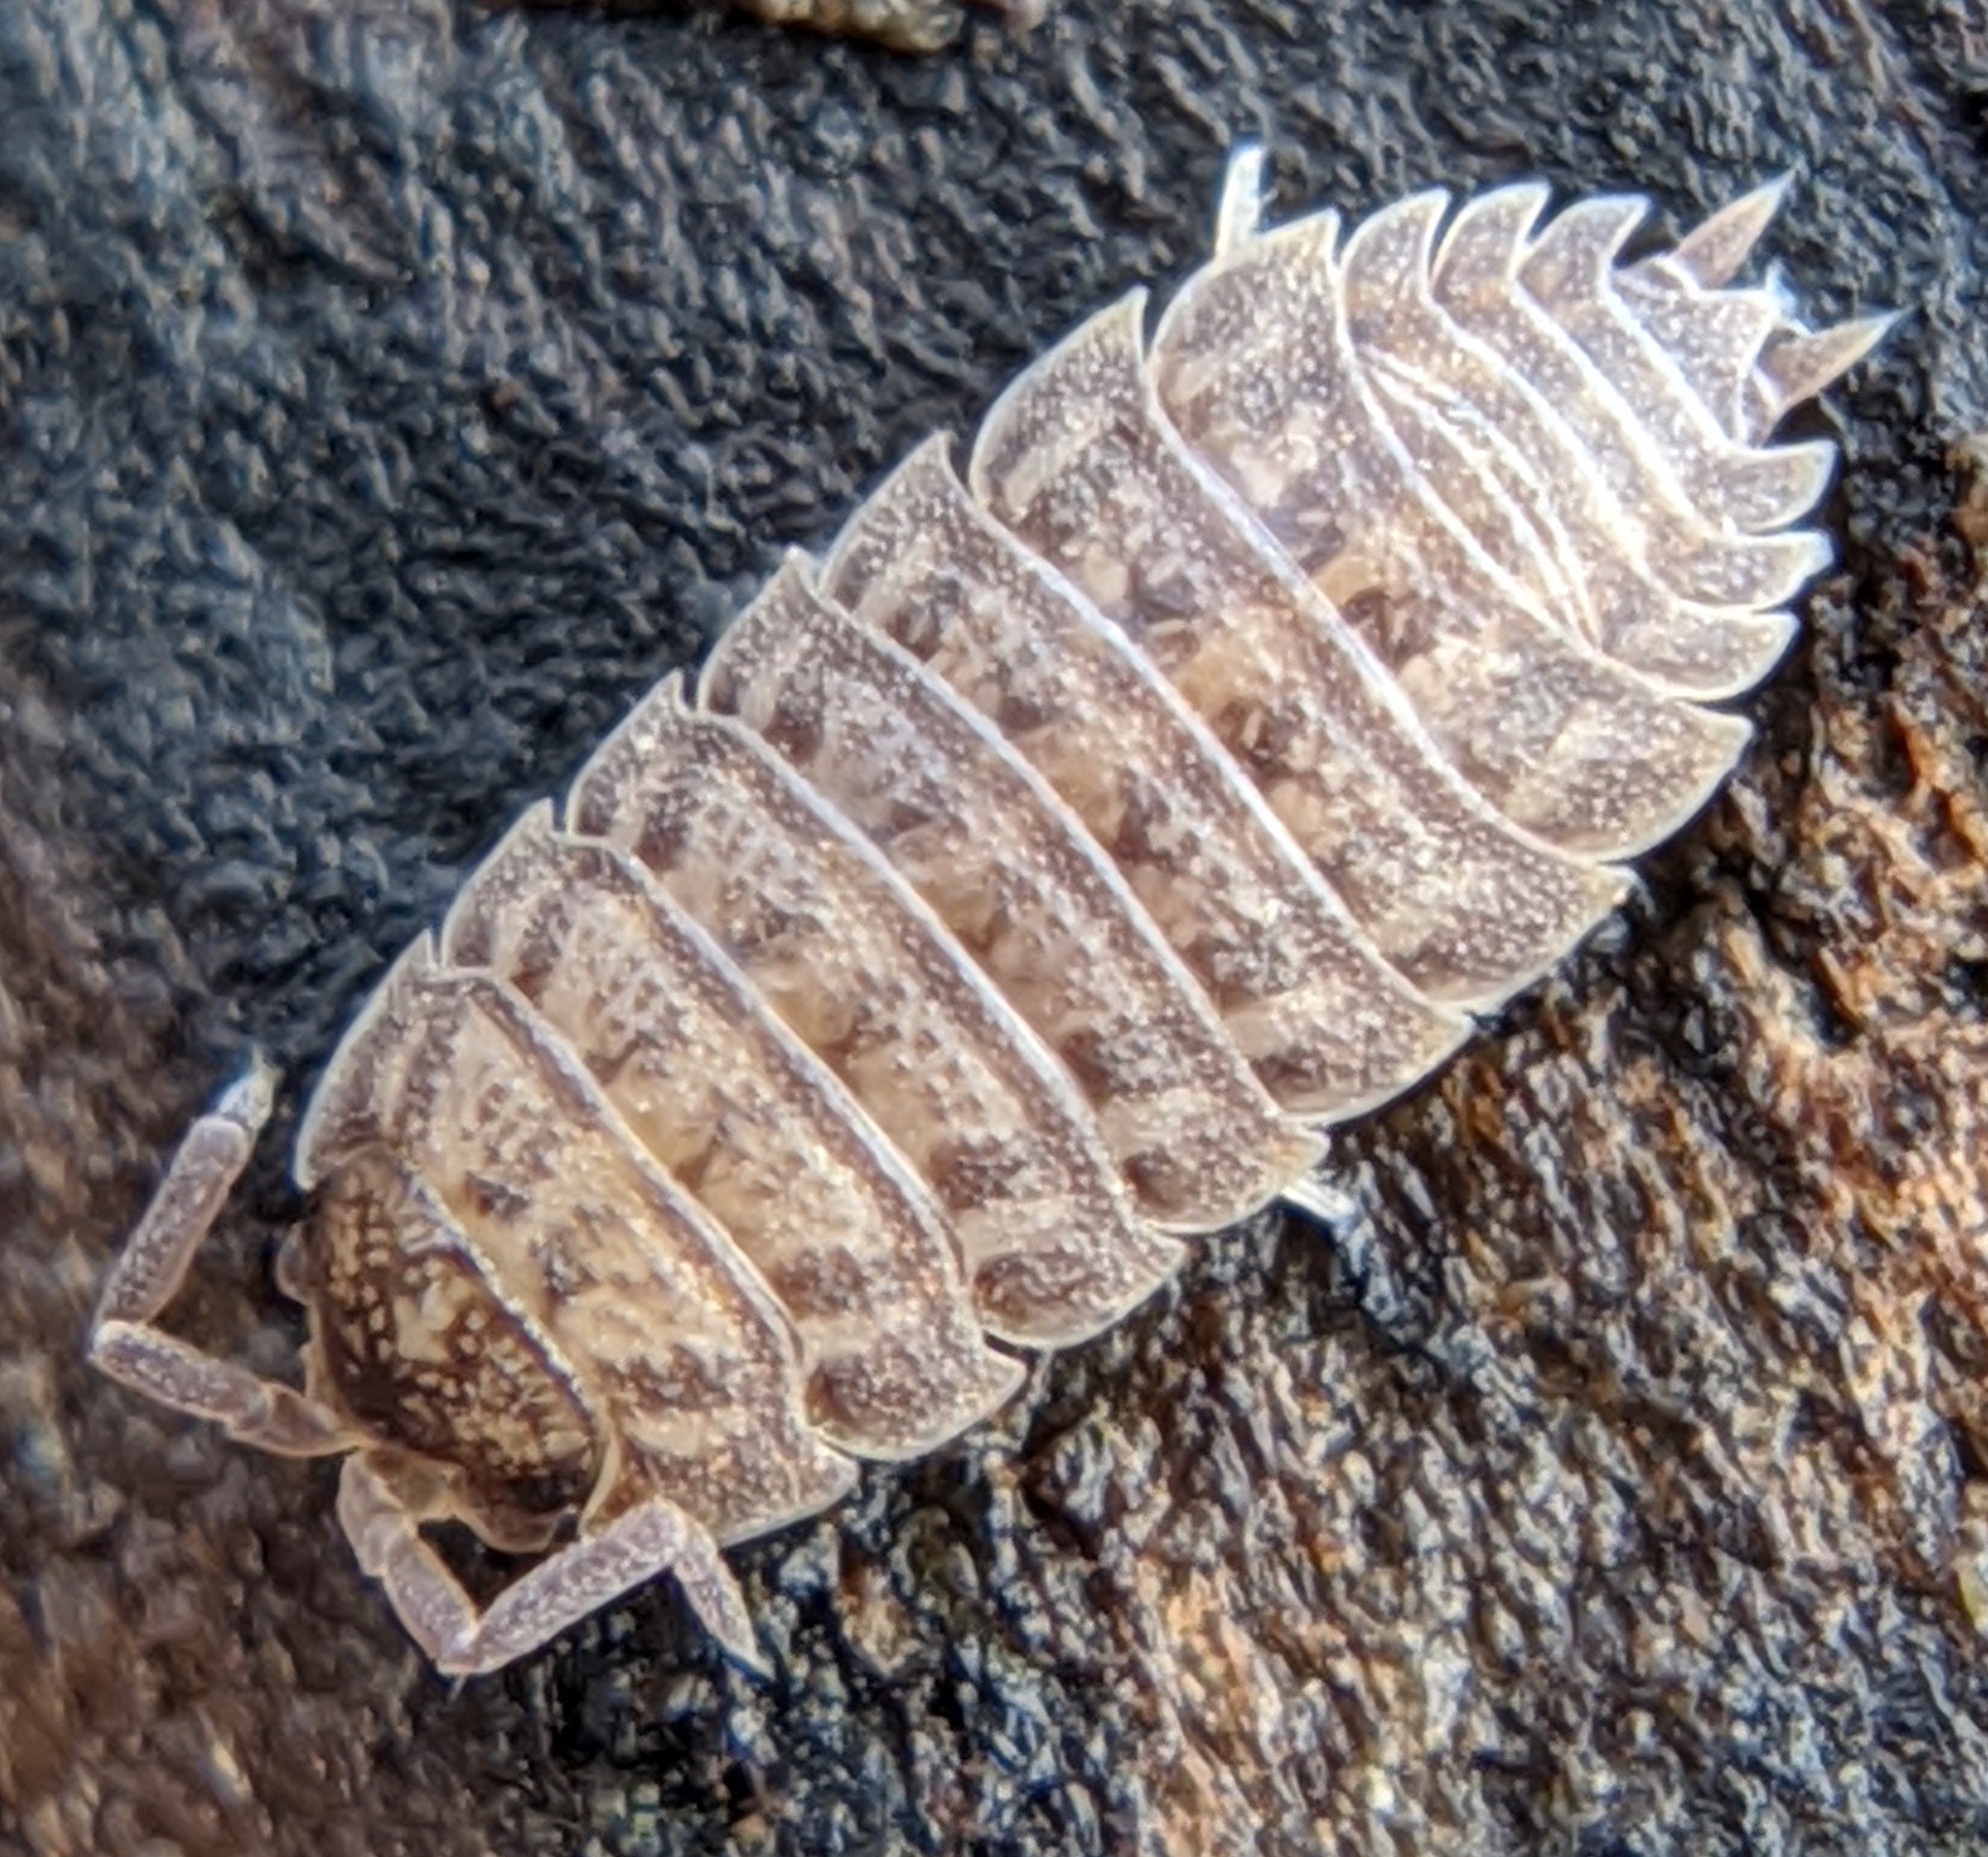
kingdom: Animalia
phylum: Arthropoda
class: Malacostraca
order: Isopoda
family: Trachelipodidae
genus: Trachelipus
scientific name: Trachelipus rathkii
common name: Isopod
